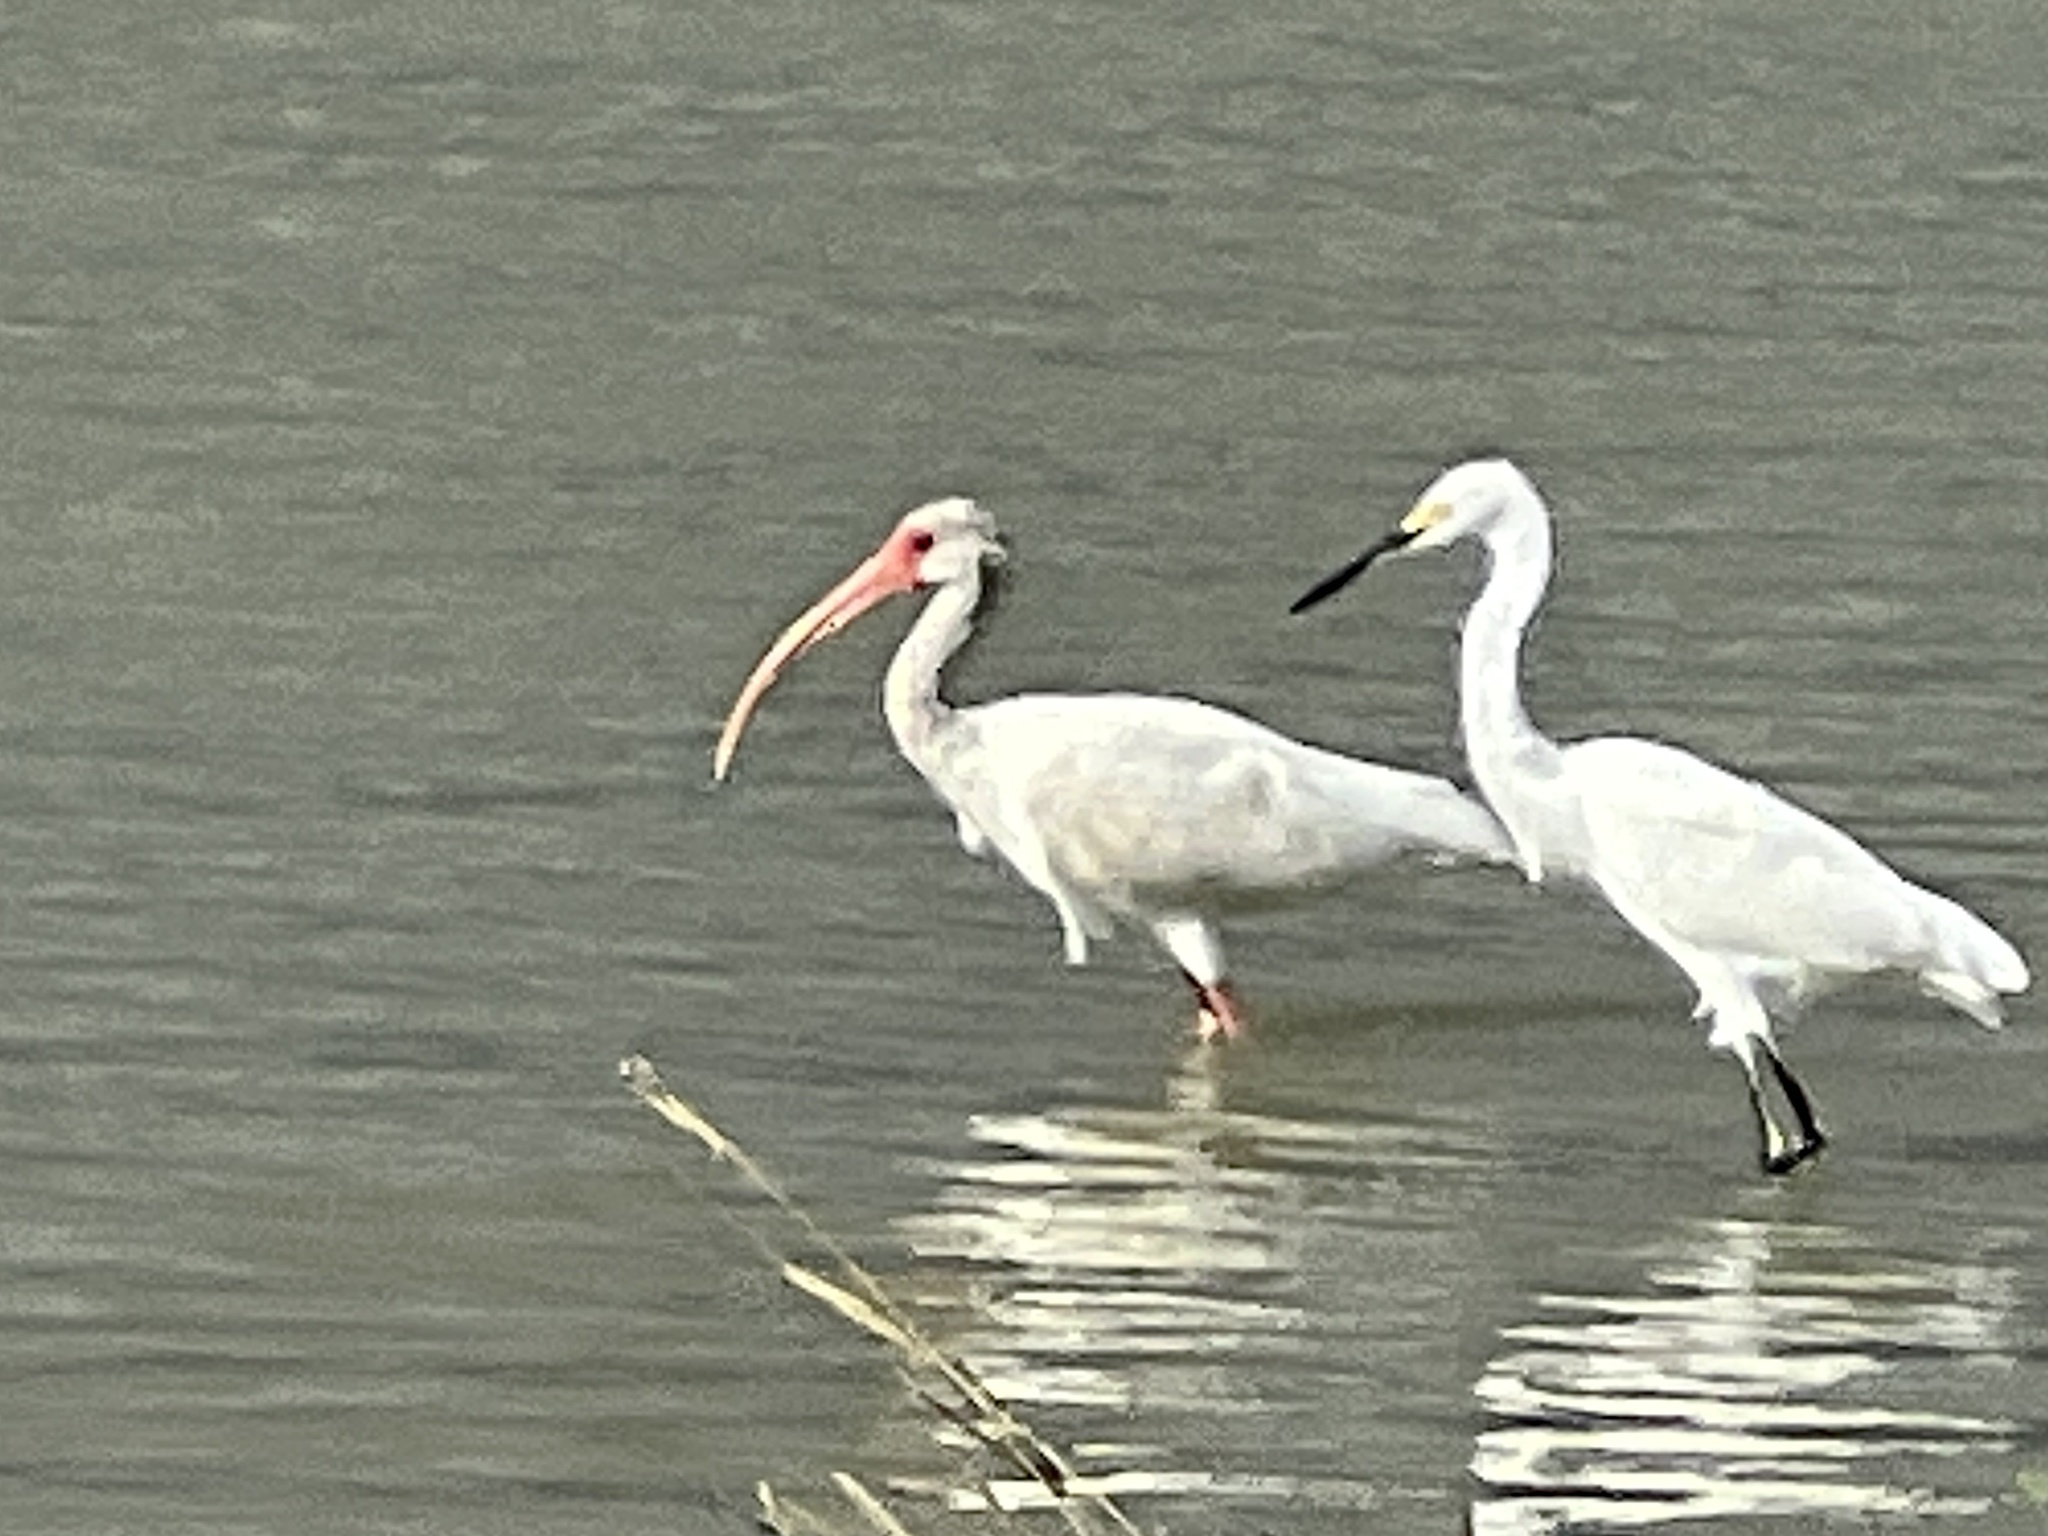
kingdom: Animalia
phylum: Chordata
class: Aves
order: Pelecaniformes
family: Threskiornithidae
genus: Eudocimus
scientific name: Eudocimus albus
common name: White ibis
